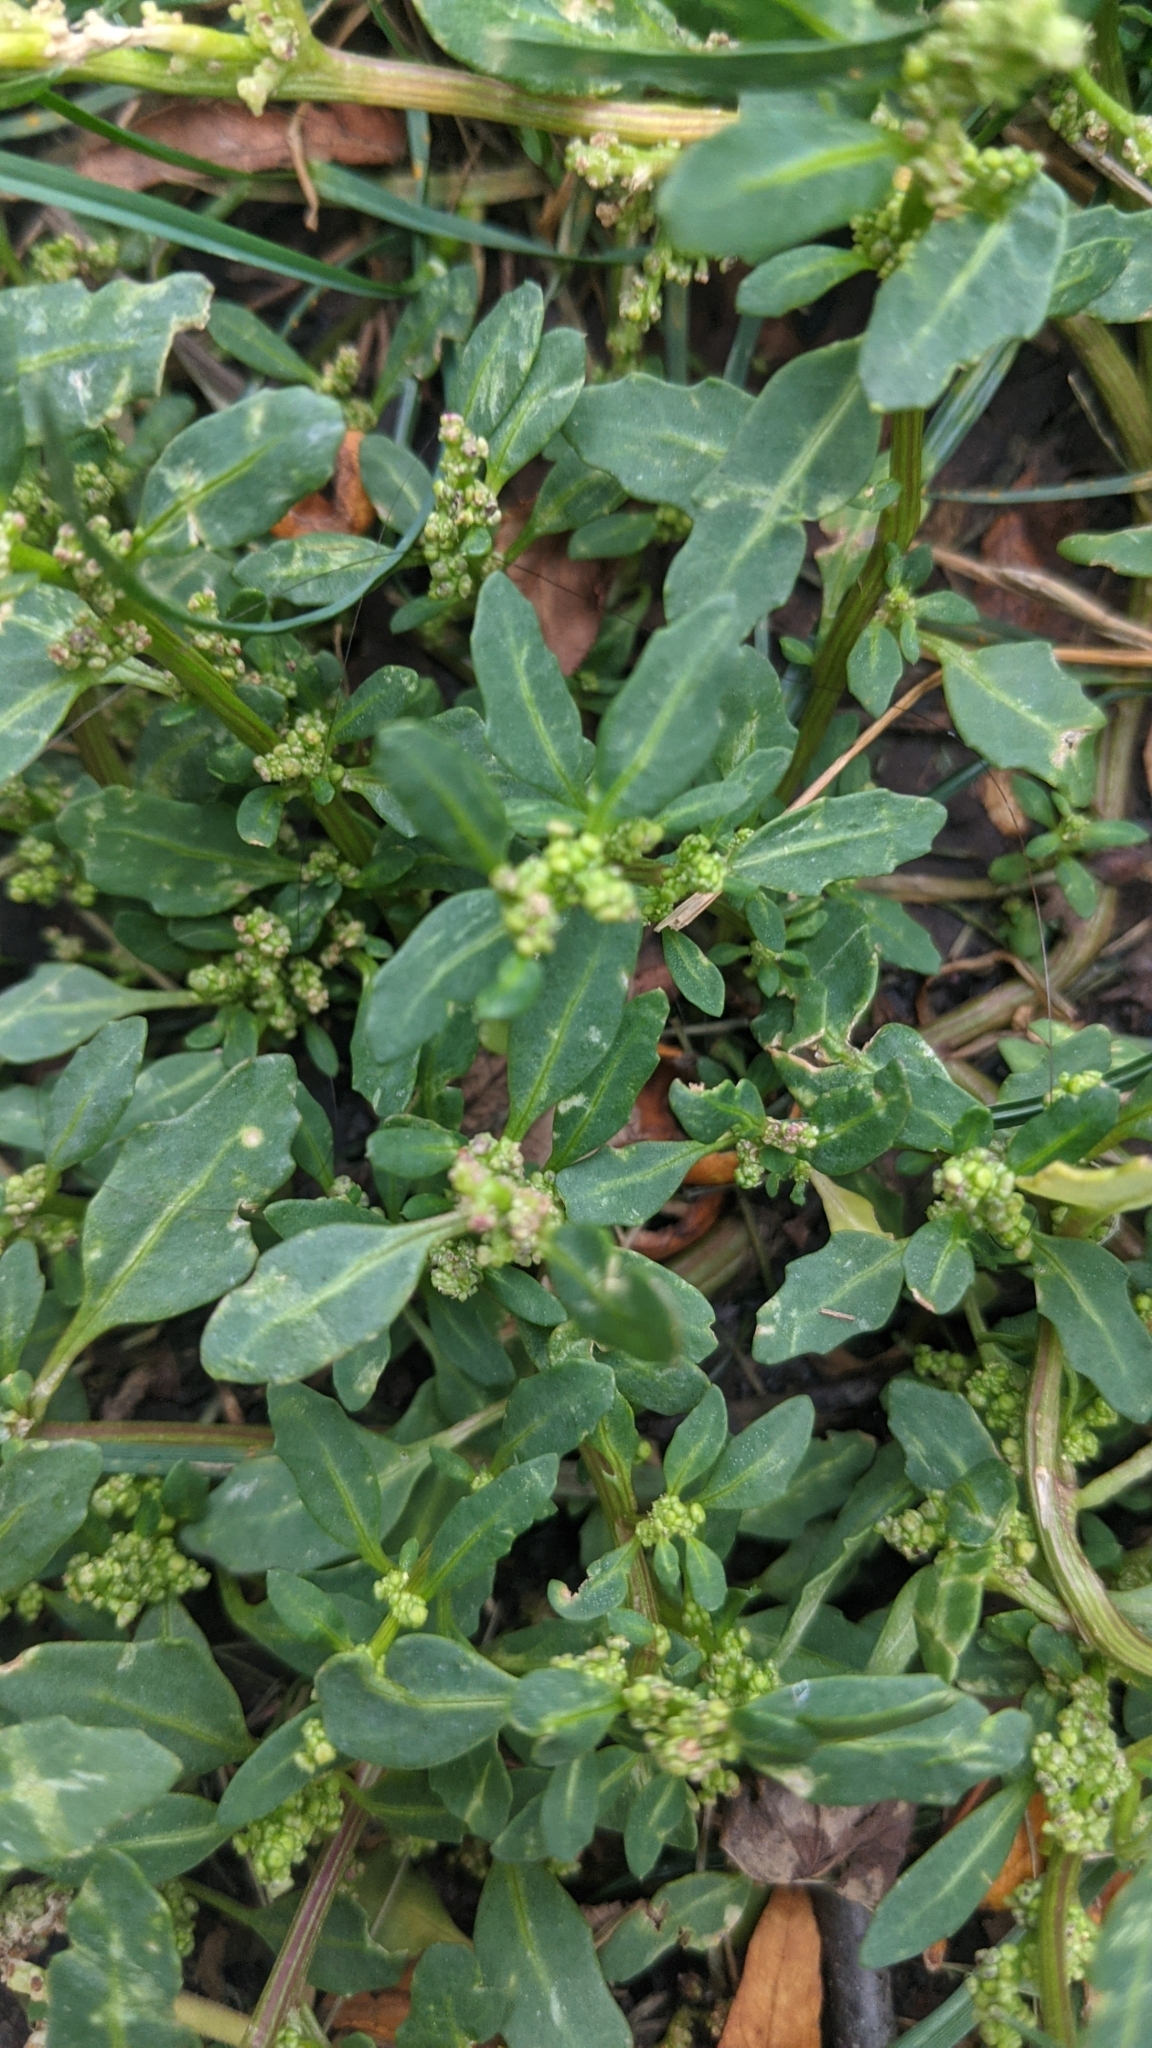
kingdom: Plantae
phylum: Tracheophyta
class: Magnoliopsida
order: Caryophyllales
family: Amaranthaceae
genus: Oxybasis
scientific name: Oxybasis glauca
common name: Glaucous goosefoot
